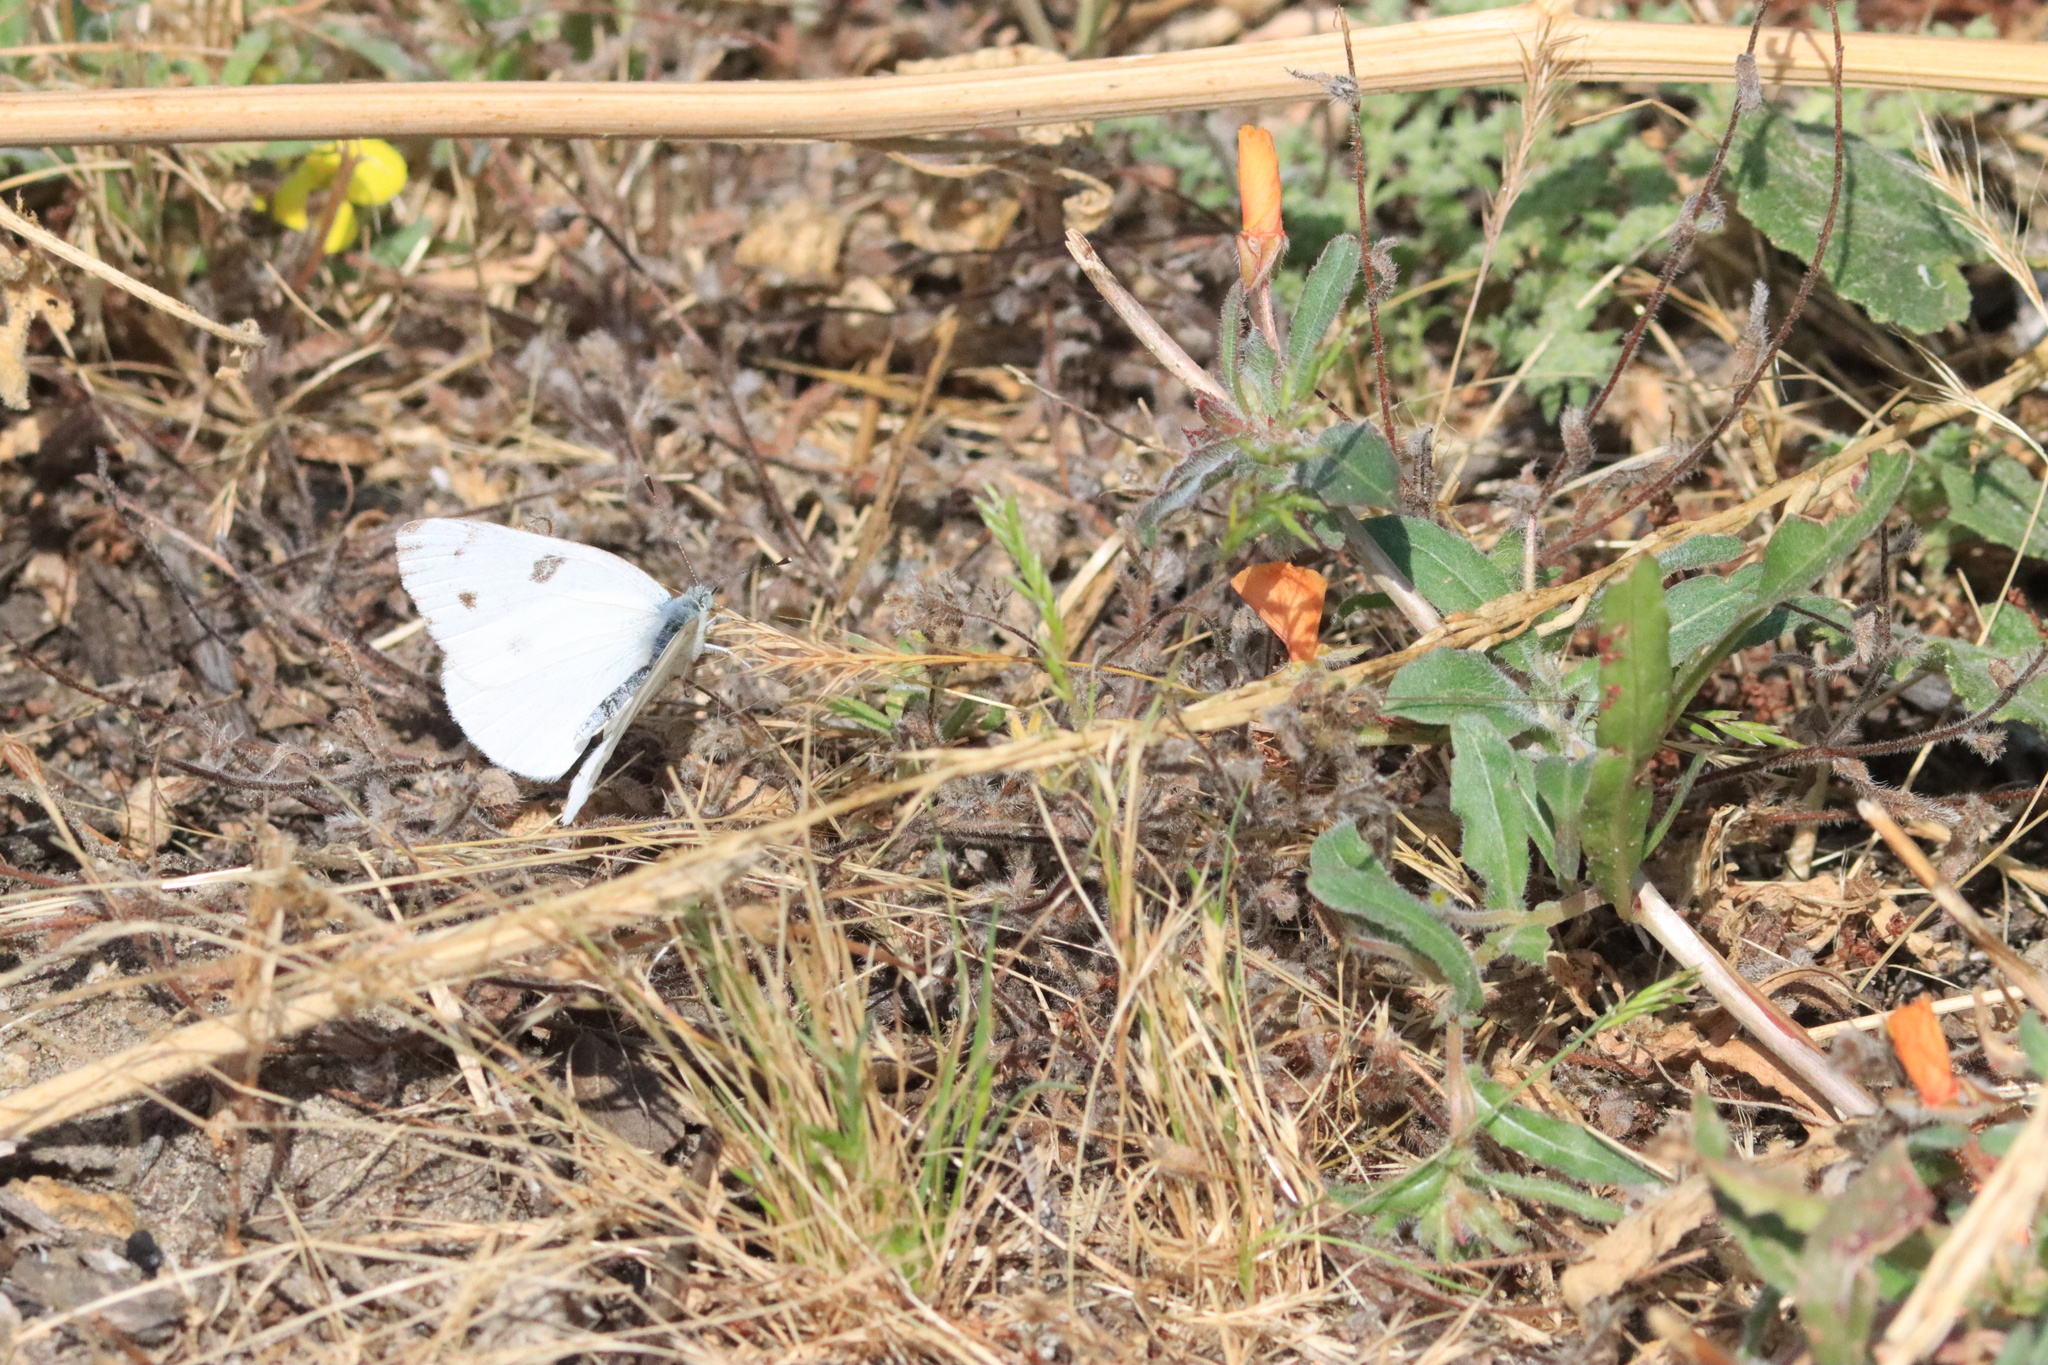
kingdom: Animalia
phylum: Arthropoda
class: Insecta
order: Lepidoptera
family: Pieridae
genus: Pontia
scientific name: Pontia protodice
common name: Checkered white
